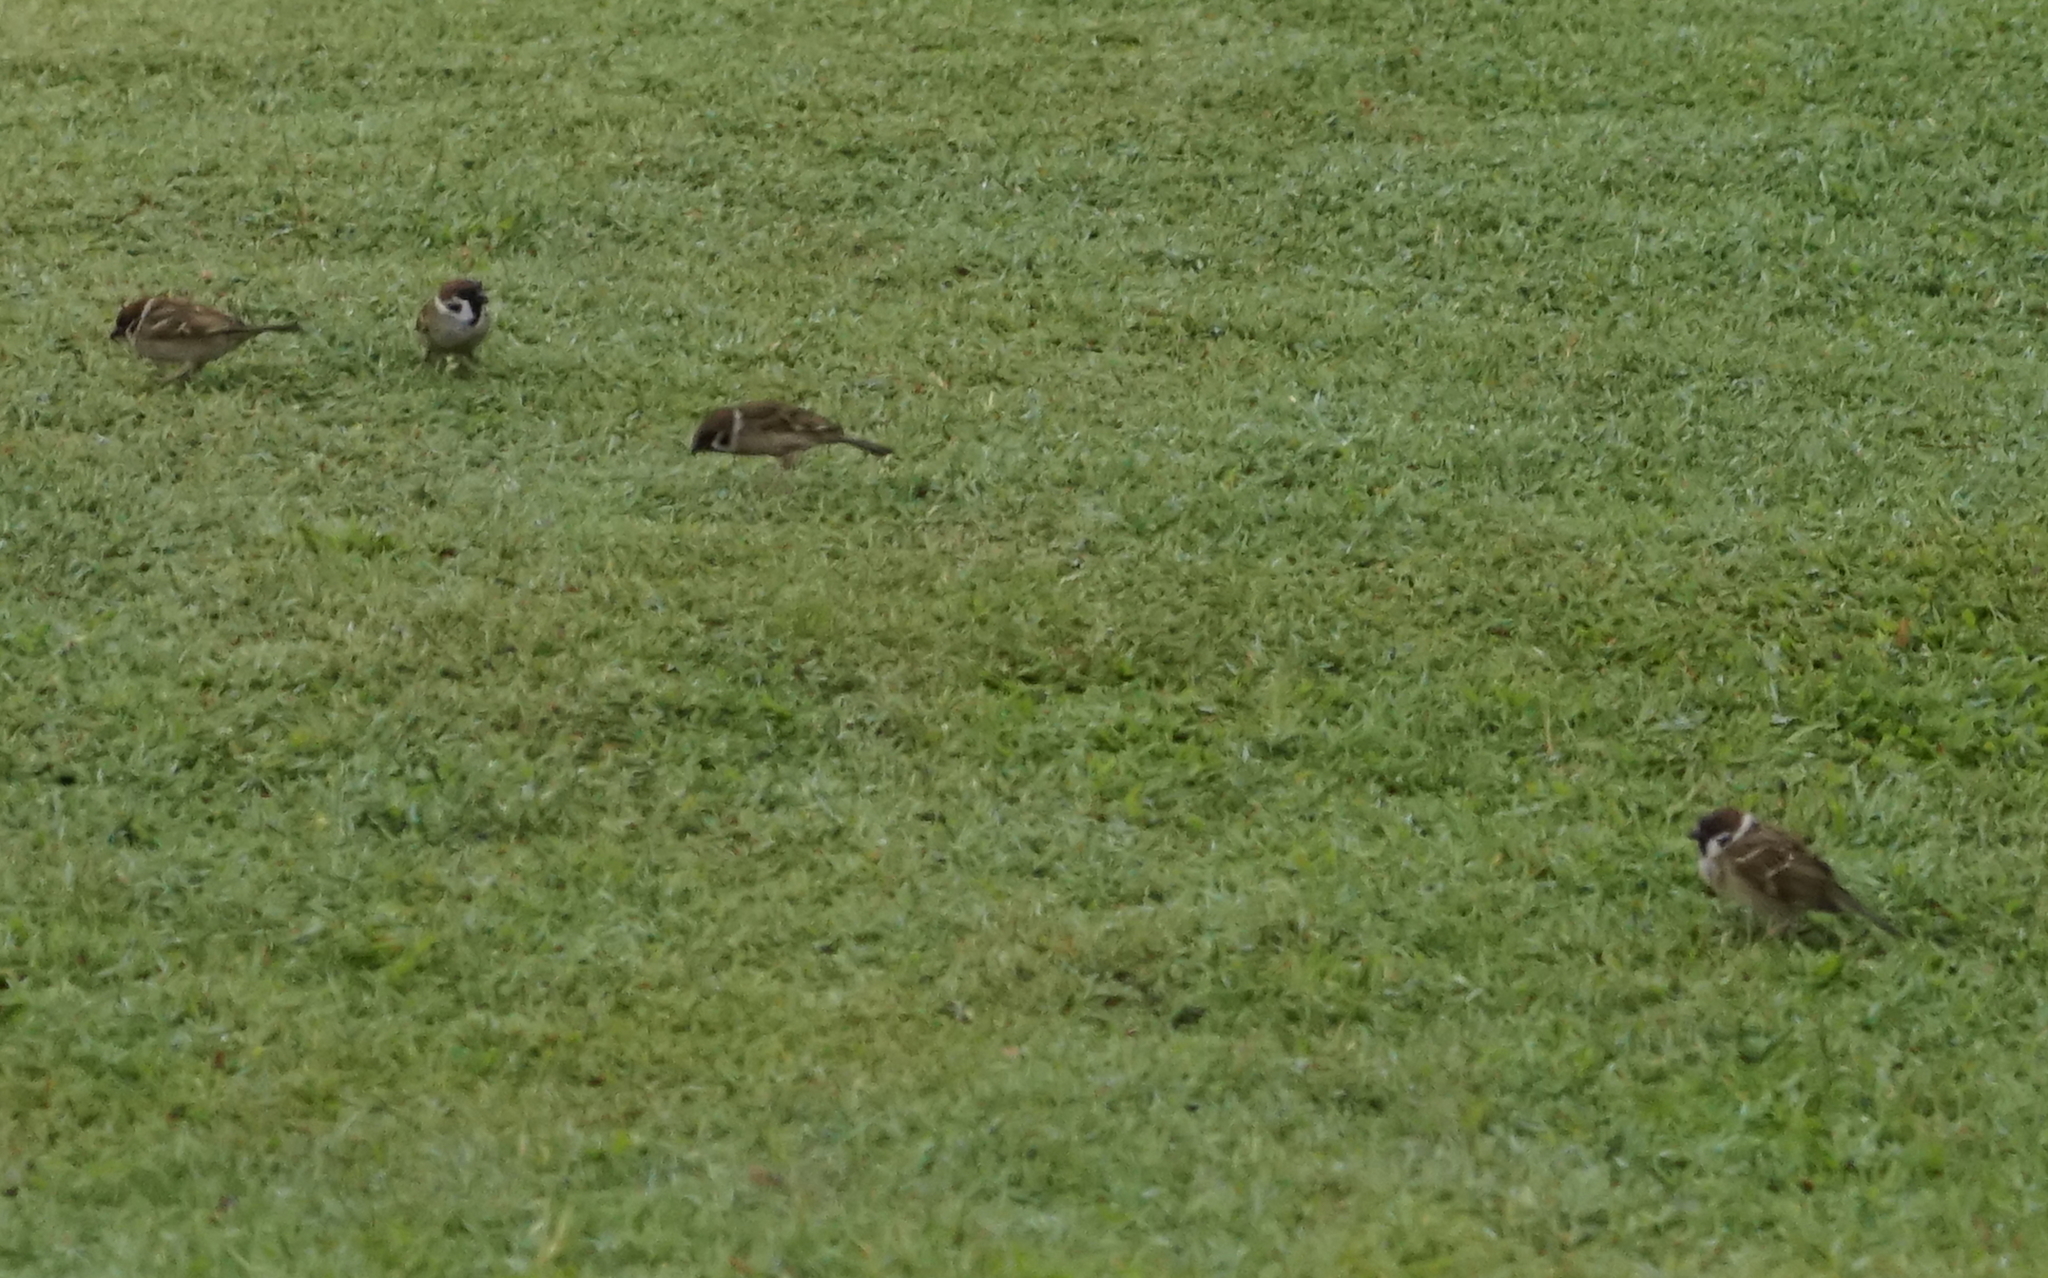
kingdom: Animalia
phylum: Chordata
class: Aves
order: Passeriformes
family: Passeridae
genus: Passer
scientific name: Passer montanus
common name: Eurasian tree sparrow
